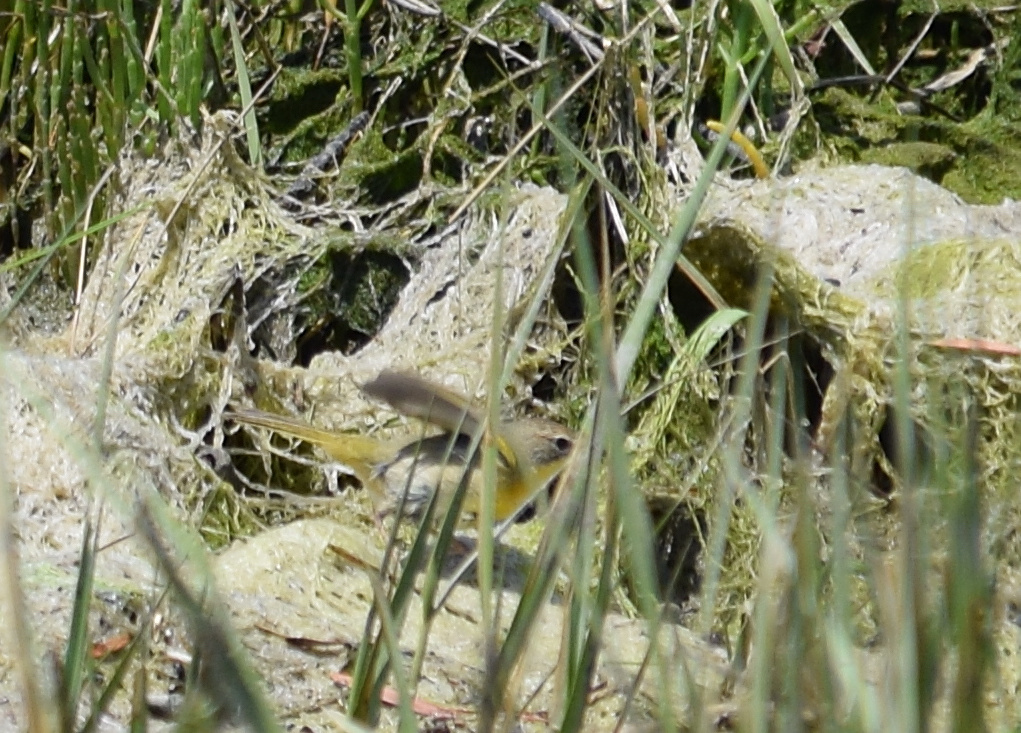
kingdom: Animalia
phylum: Chordata
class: Aves
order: Passeriformes
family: Parulidae
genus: Geothlypis
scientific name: Geothlypis trichas
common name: Common yellowthroat
